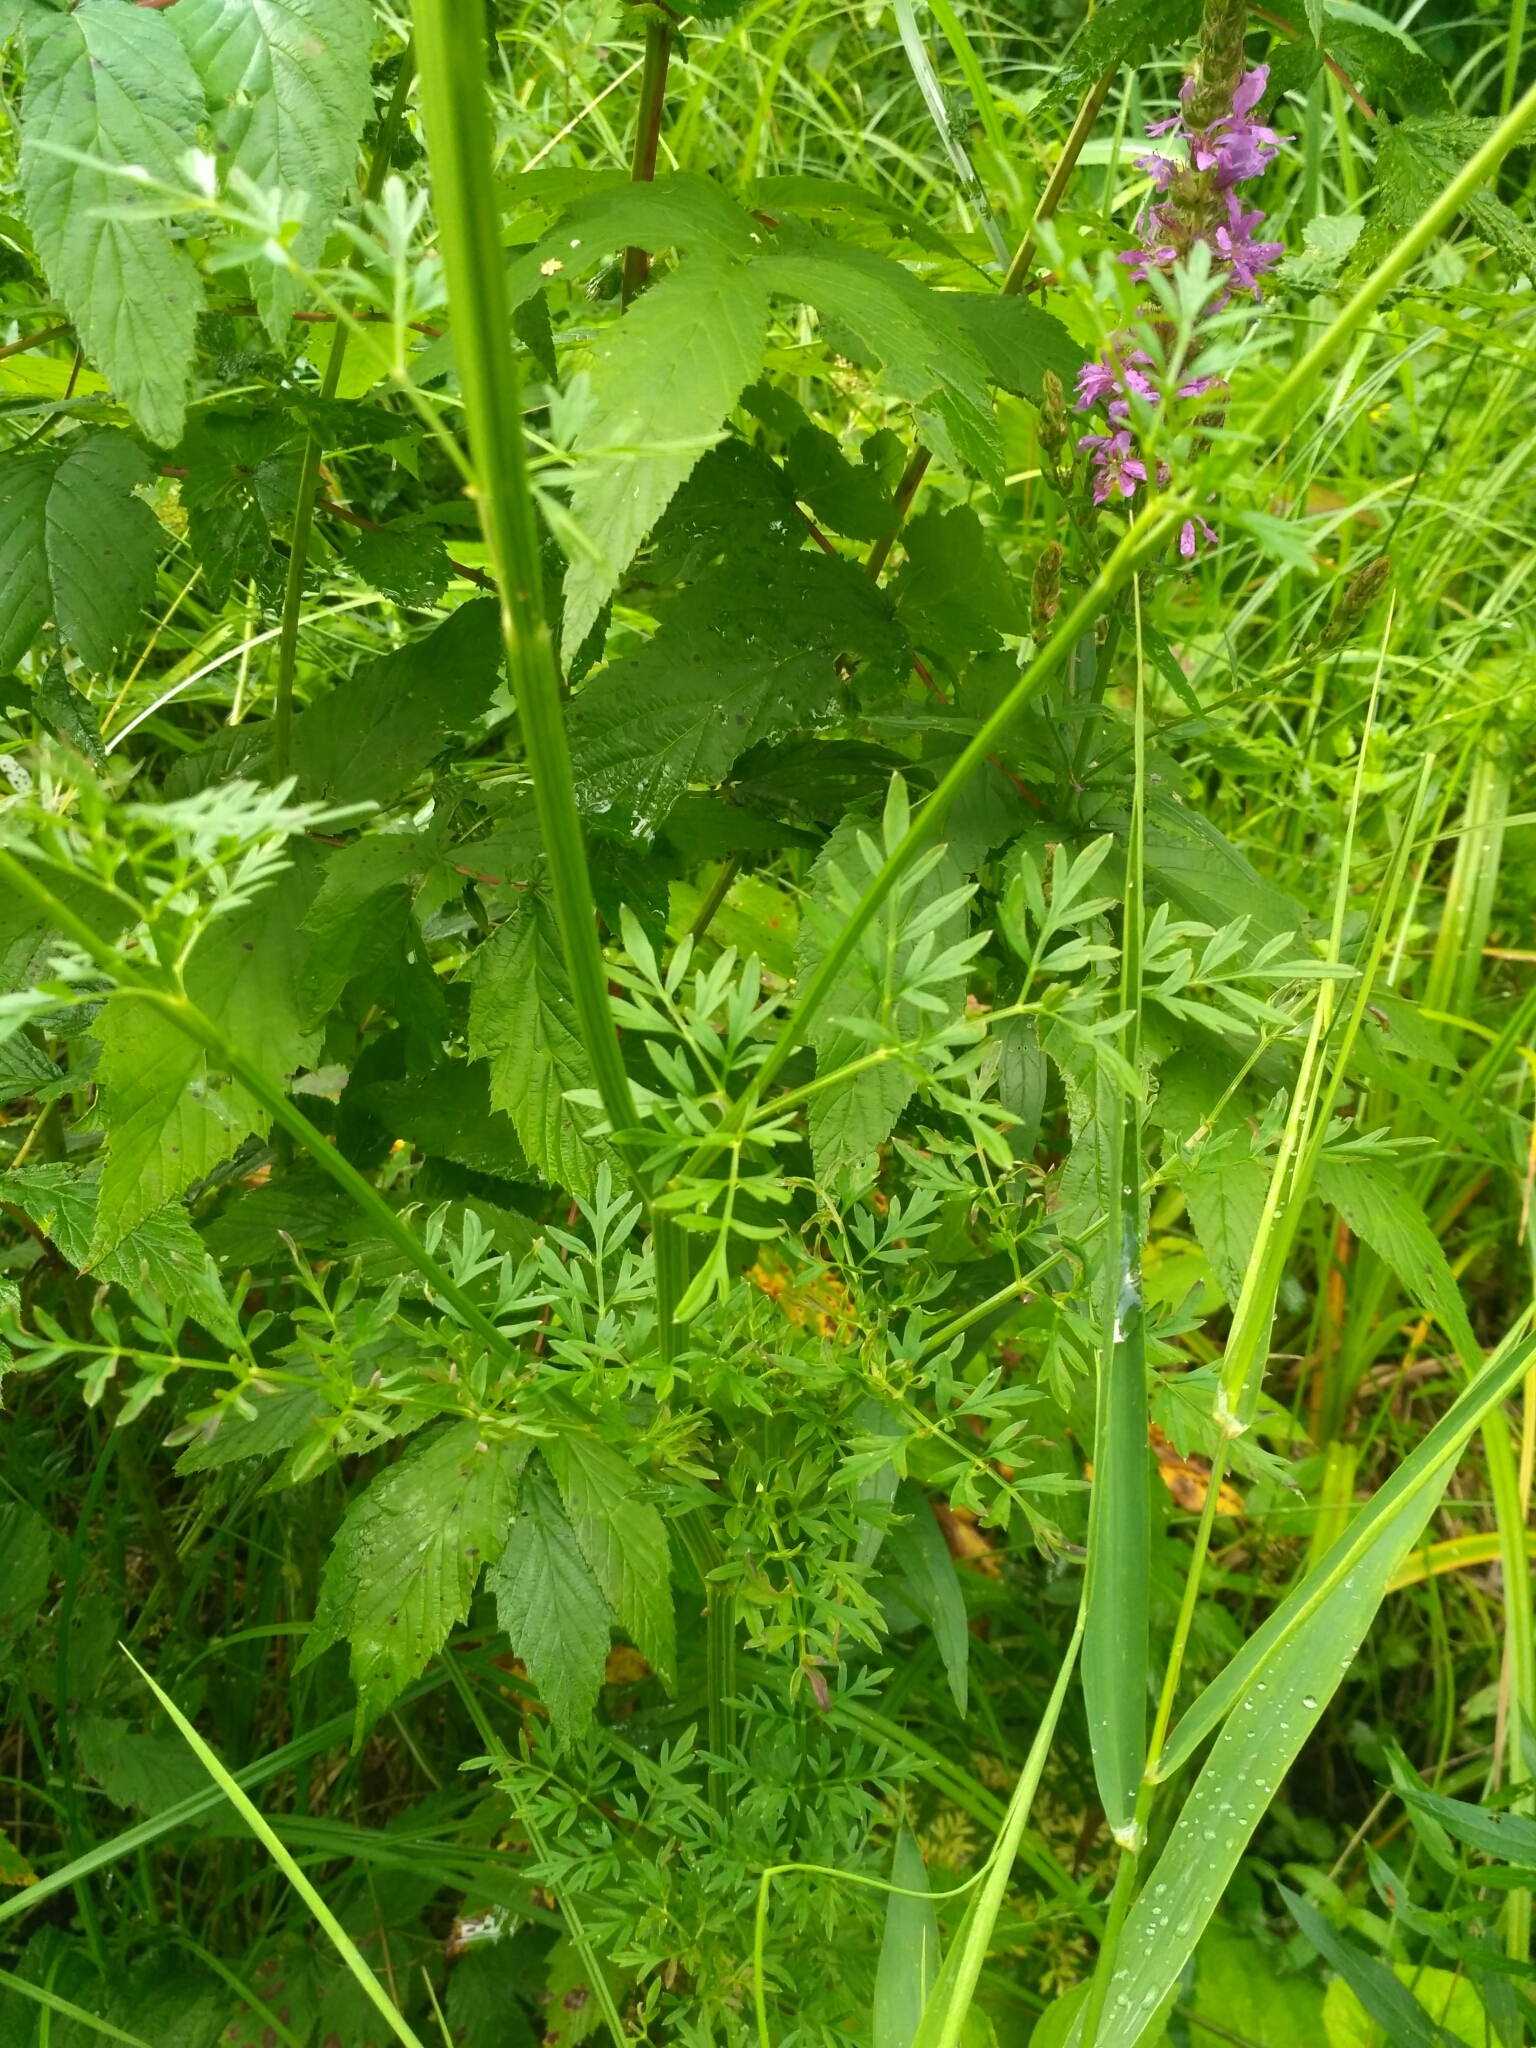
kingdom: Plantae
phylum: Tracheophyta
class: Magnoliopsida
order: Apiales
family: Apiaceae
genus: Selinum
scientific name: Selinum carvifolia
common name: Cambridge milk-parsley
